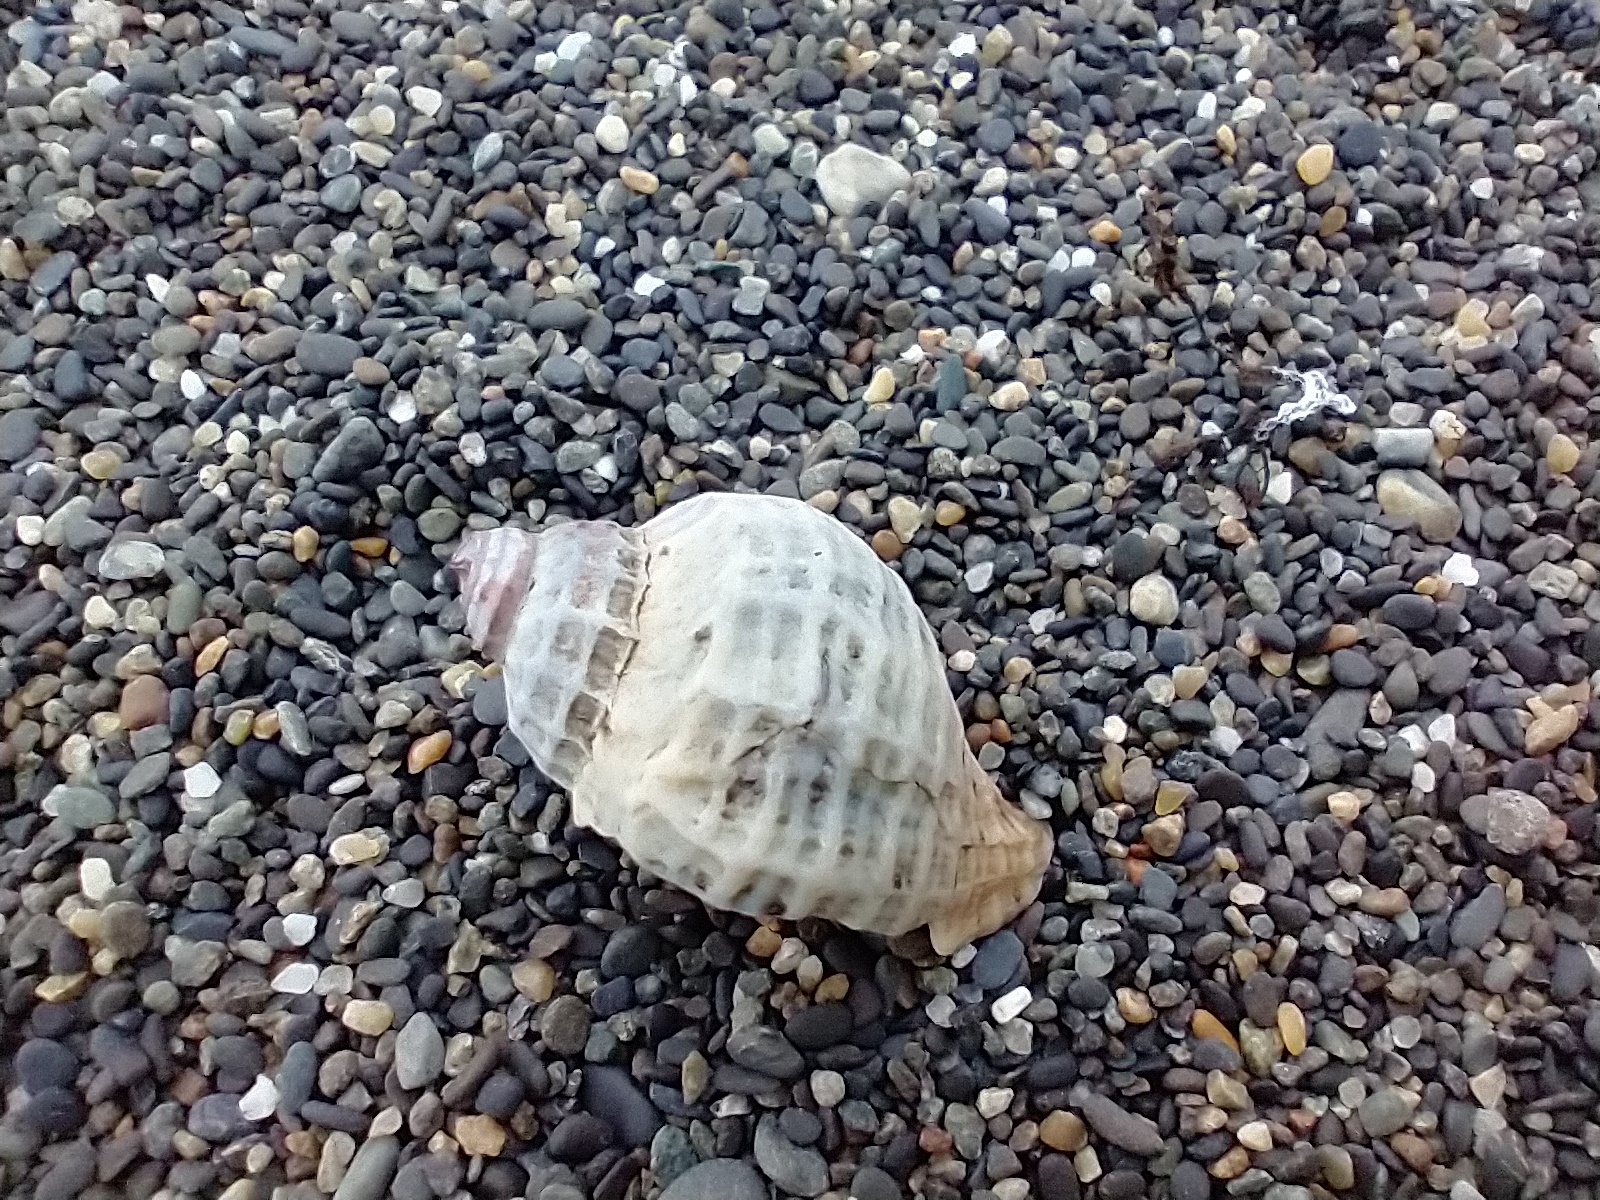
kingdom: Animalia
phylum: Mollusca
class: Gastropoda
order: Neogastropoda
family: Muricidae
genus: Trophon
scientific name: Trophon geversianus
